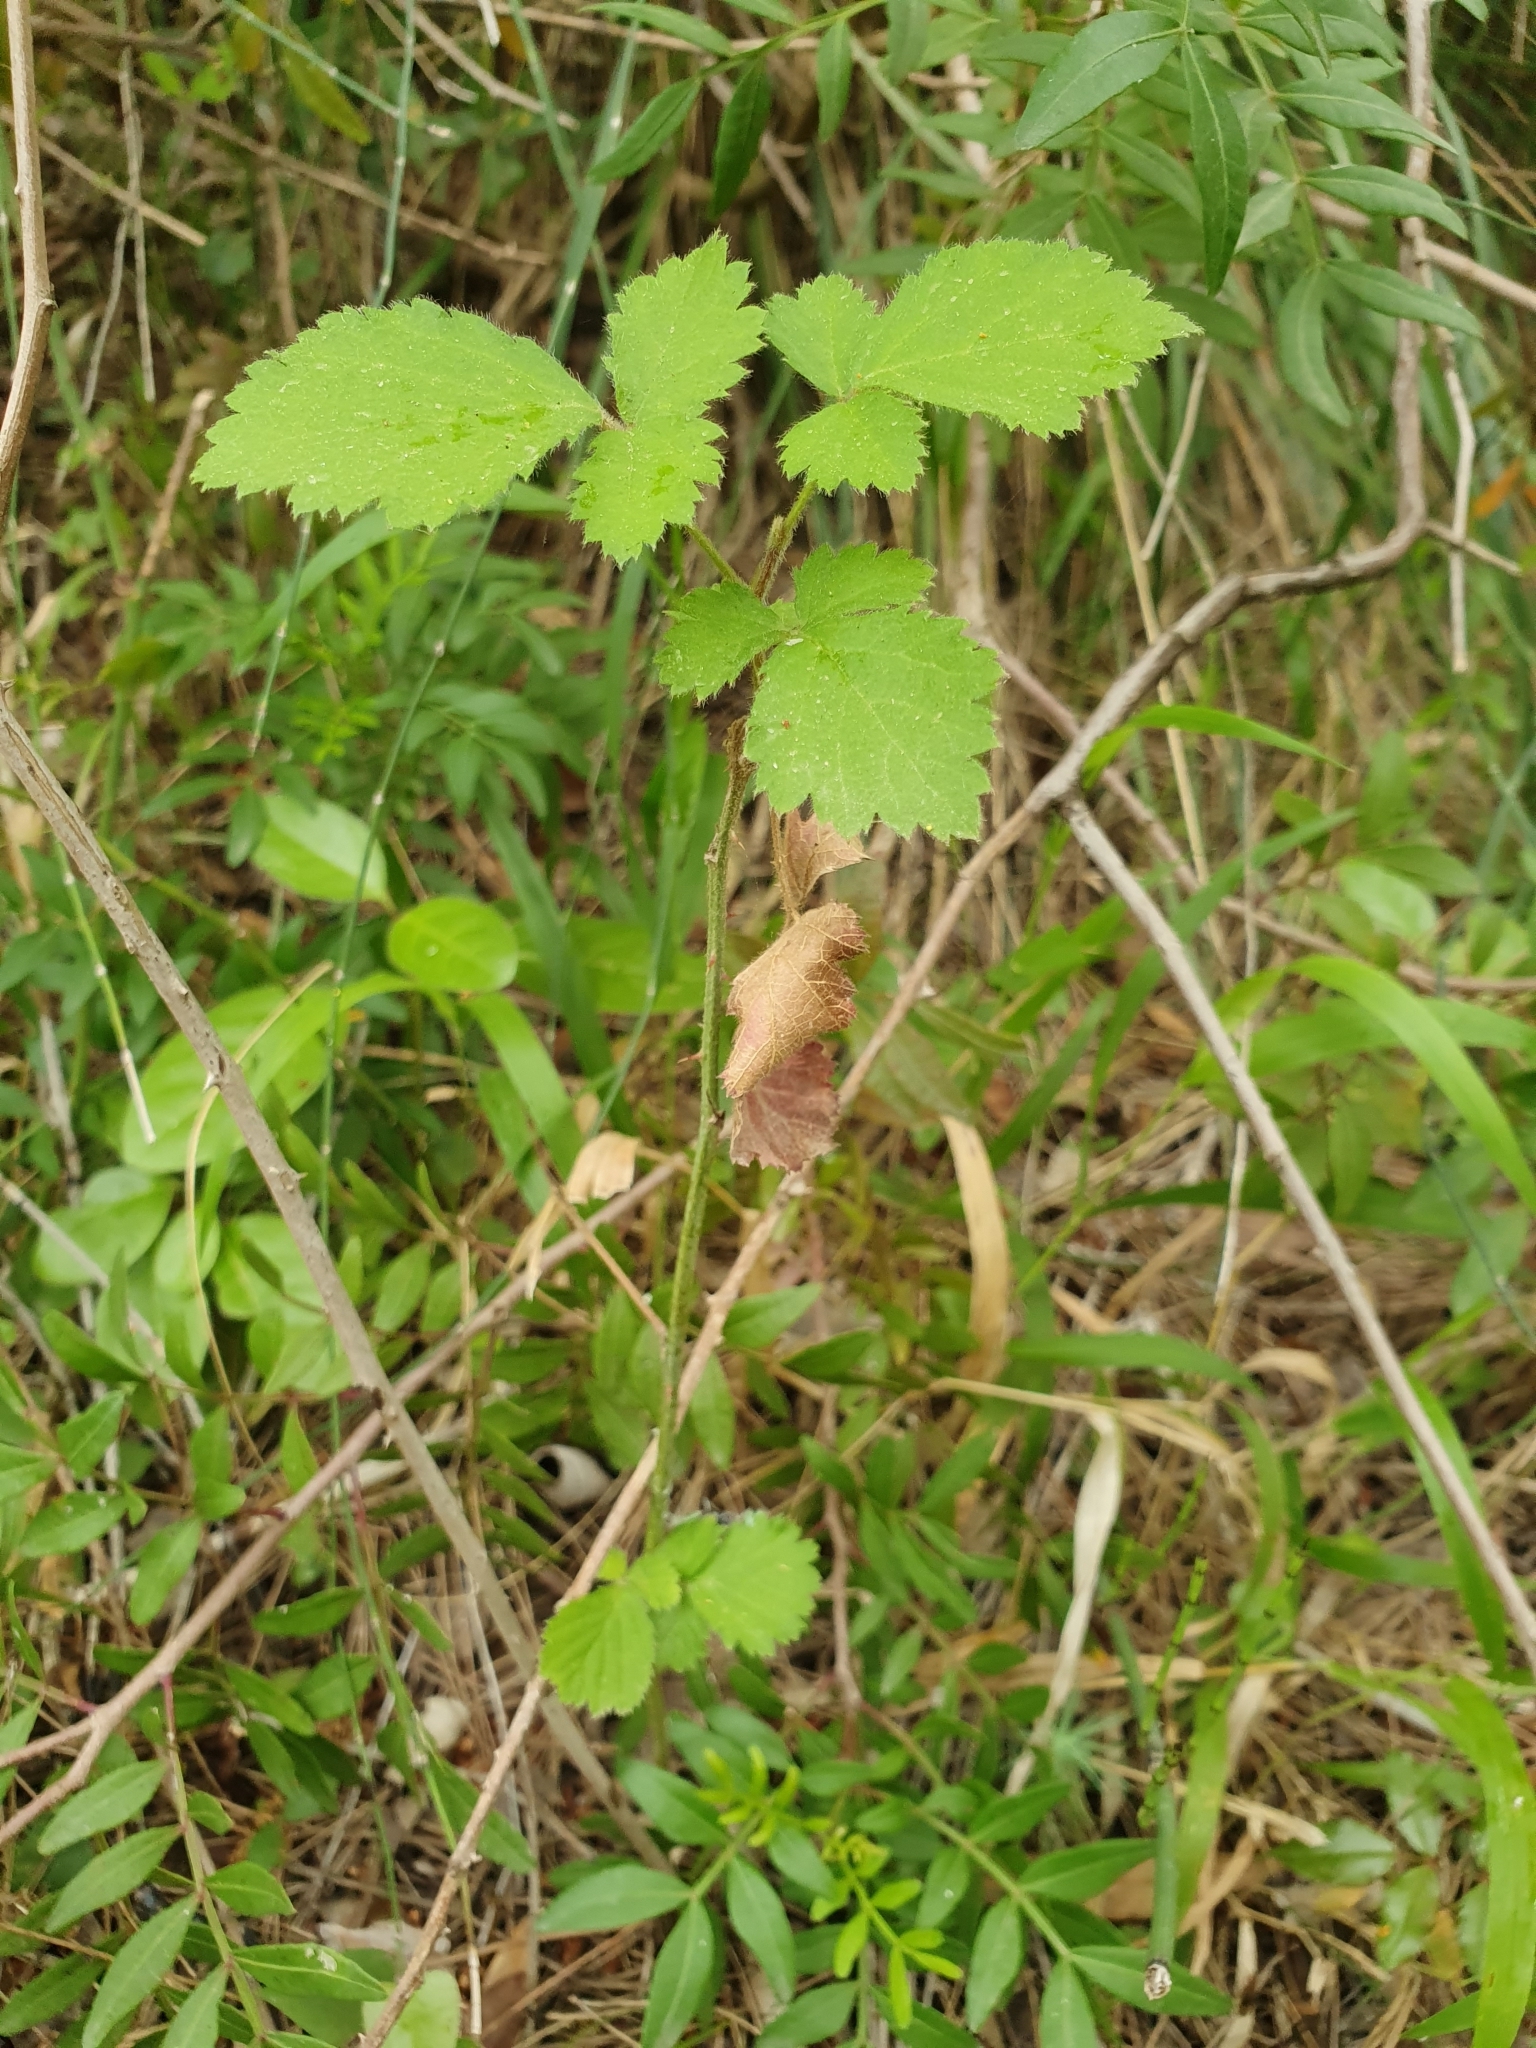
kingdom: Plantae
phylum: Tracheophyta
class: Magnoliopsida
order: Rosales
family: Rosaceae
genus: Rubus
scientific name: Rubus ulmifolius
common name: Elmleaf blackberry
